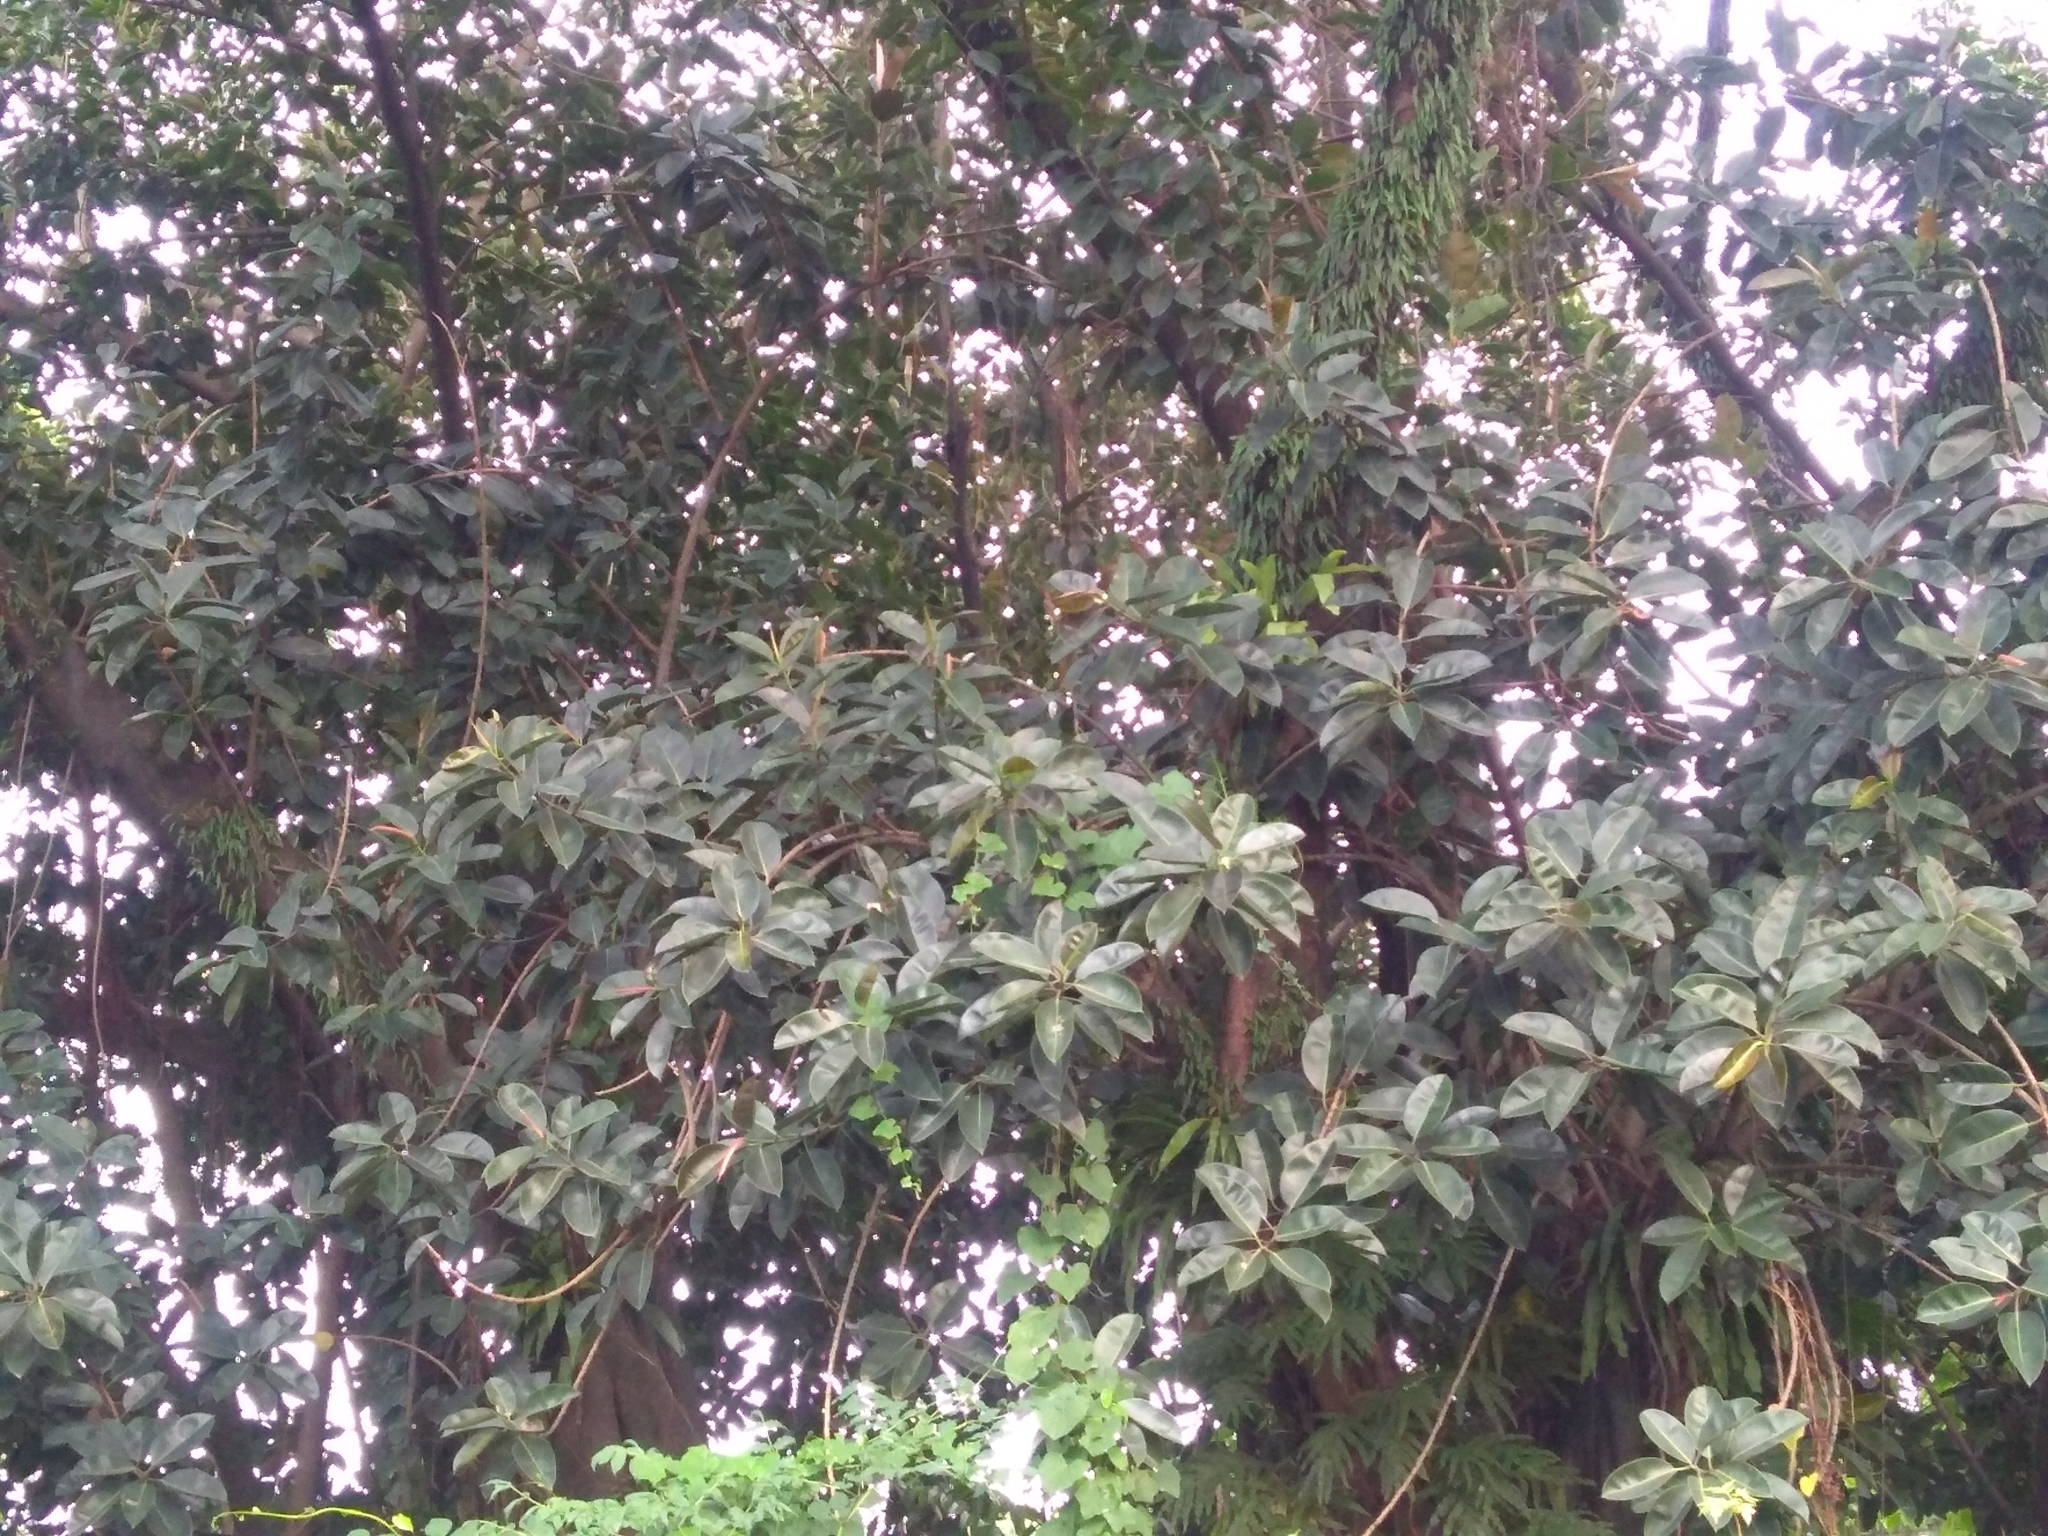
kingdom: Plantae
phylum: Tracheophyta
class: Magnoliopsida
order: Rosales
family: Moraceae
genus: Ficus
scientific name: Ficus elastica
